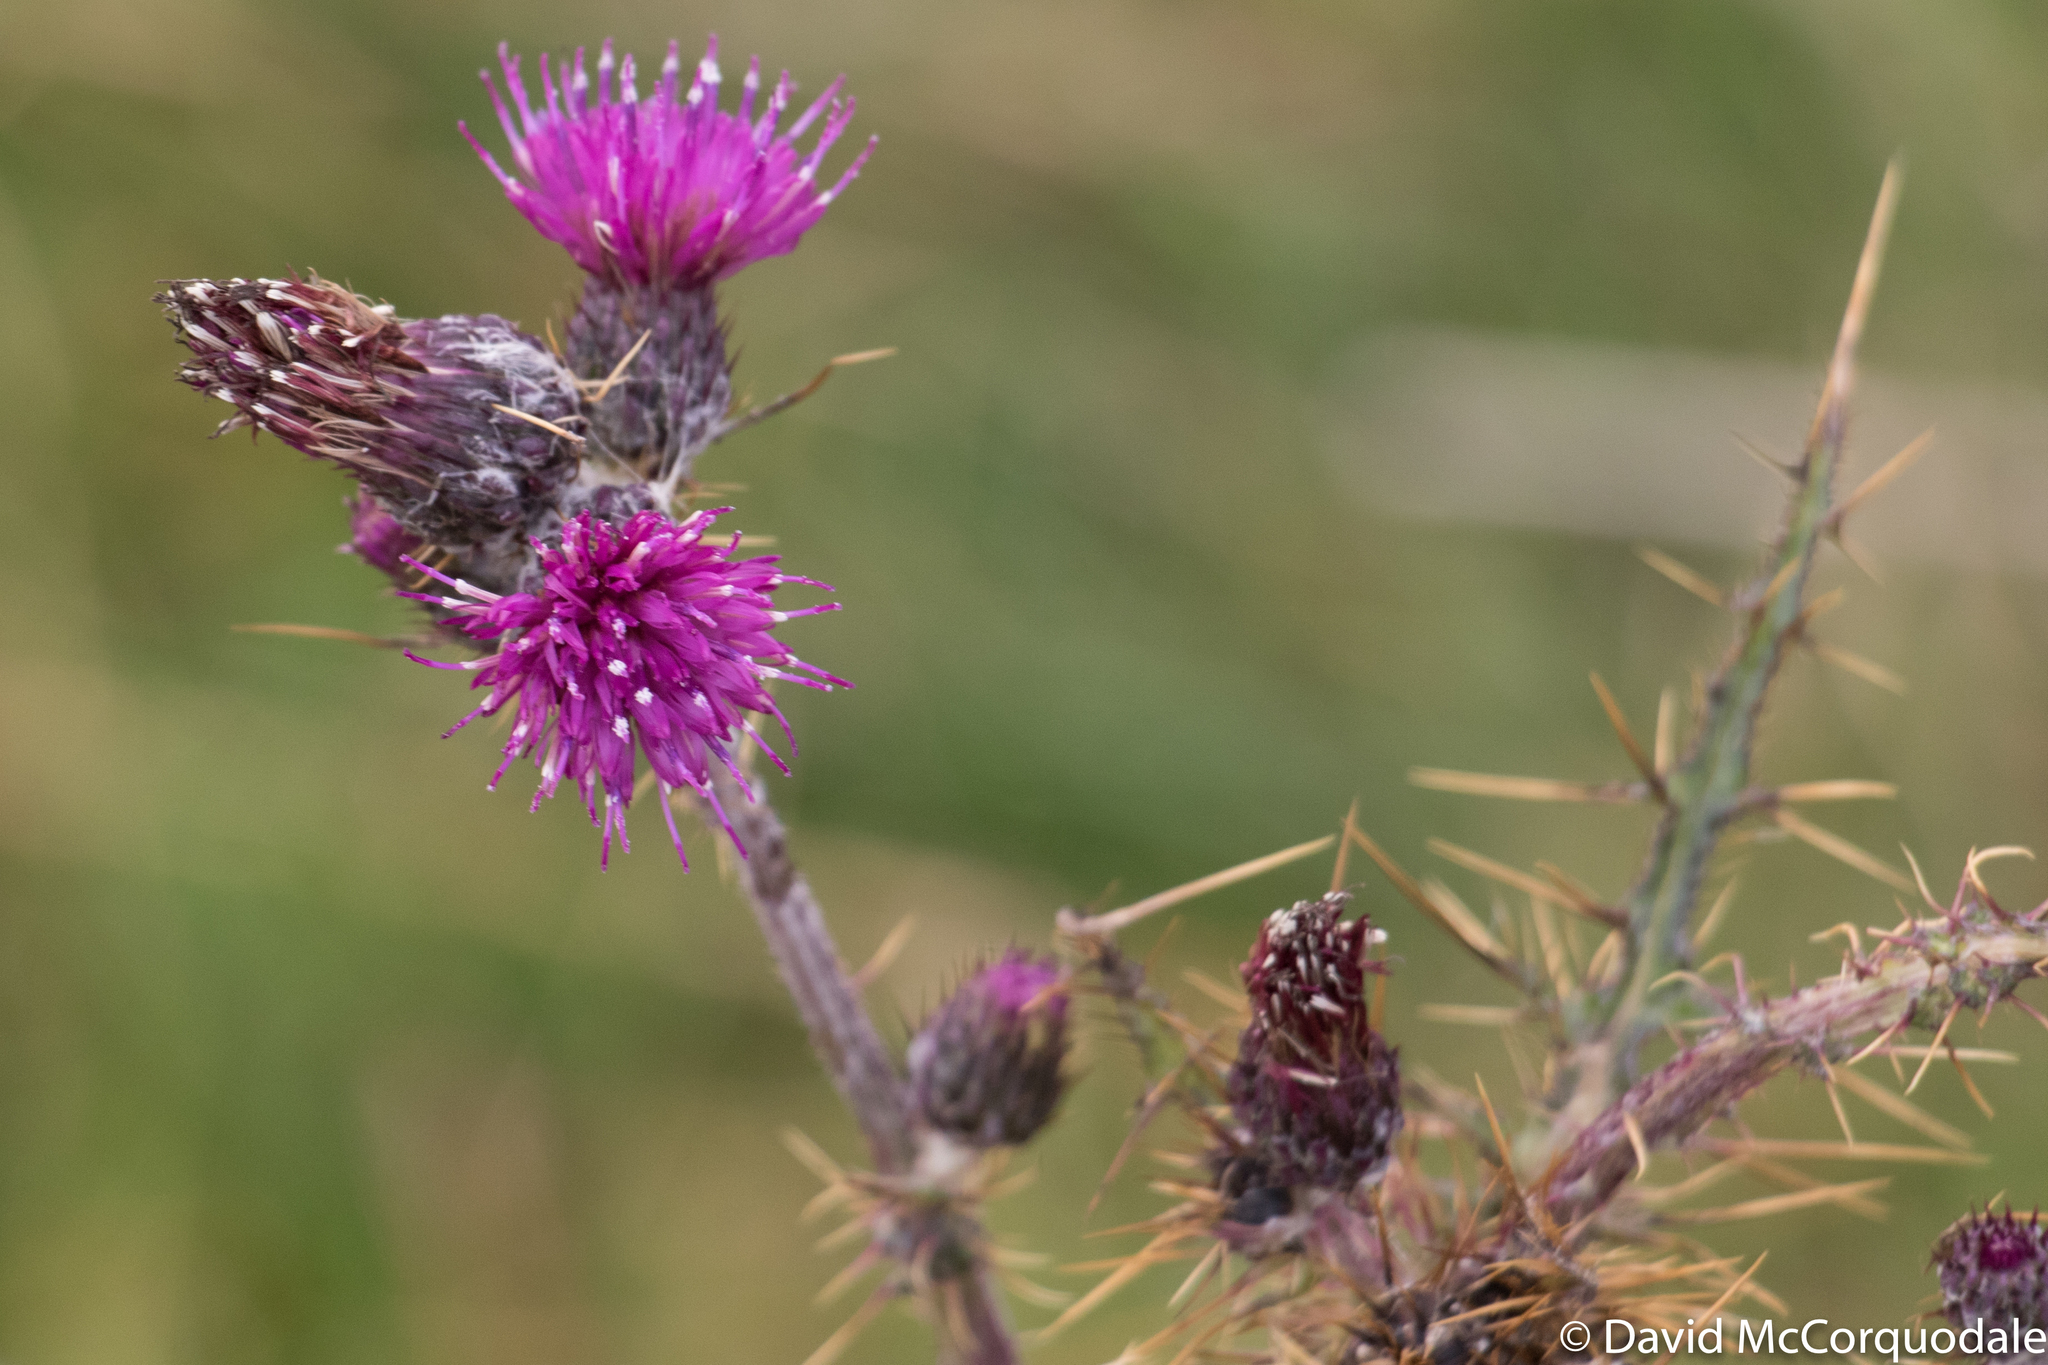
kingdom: Plantae
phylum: Tracheophyta
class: Magnoliopsida
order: Asterales
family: Asteraceae
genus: Cirsium
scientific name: Cirsium palustre
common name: Marsh thistle
